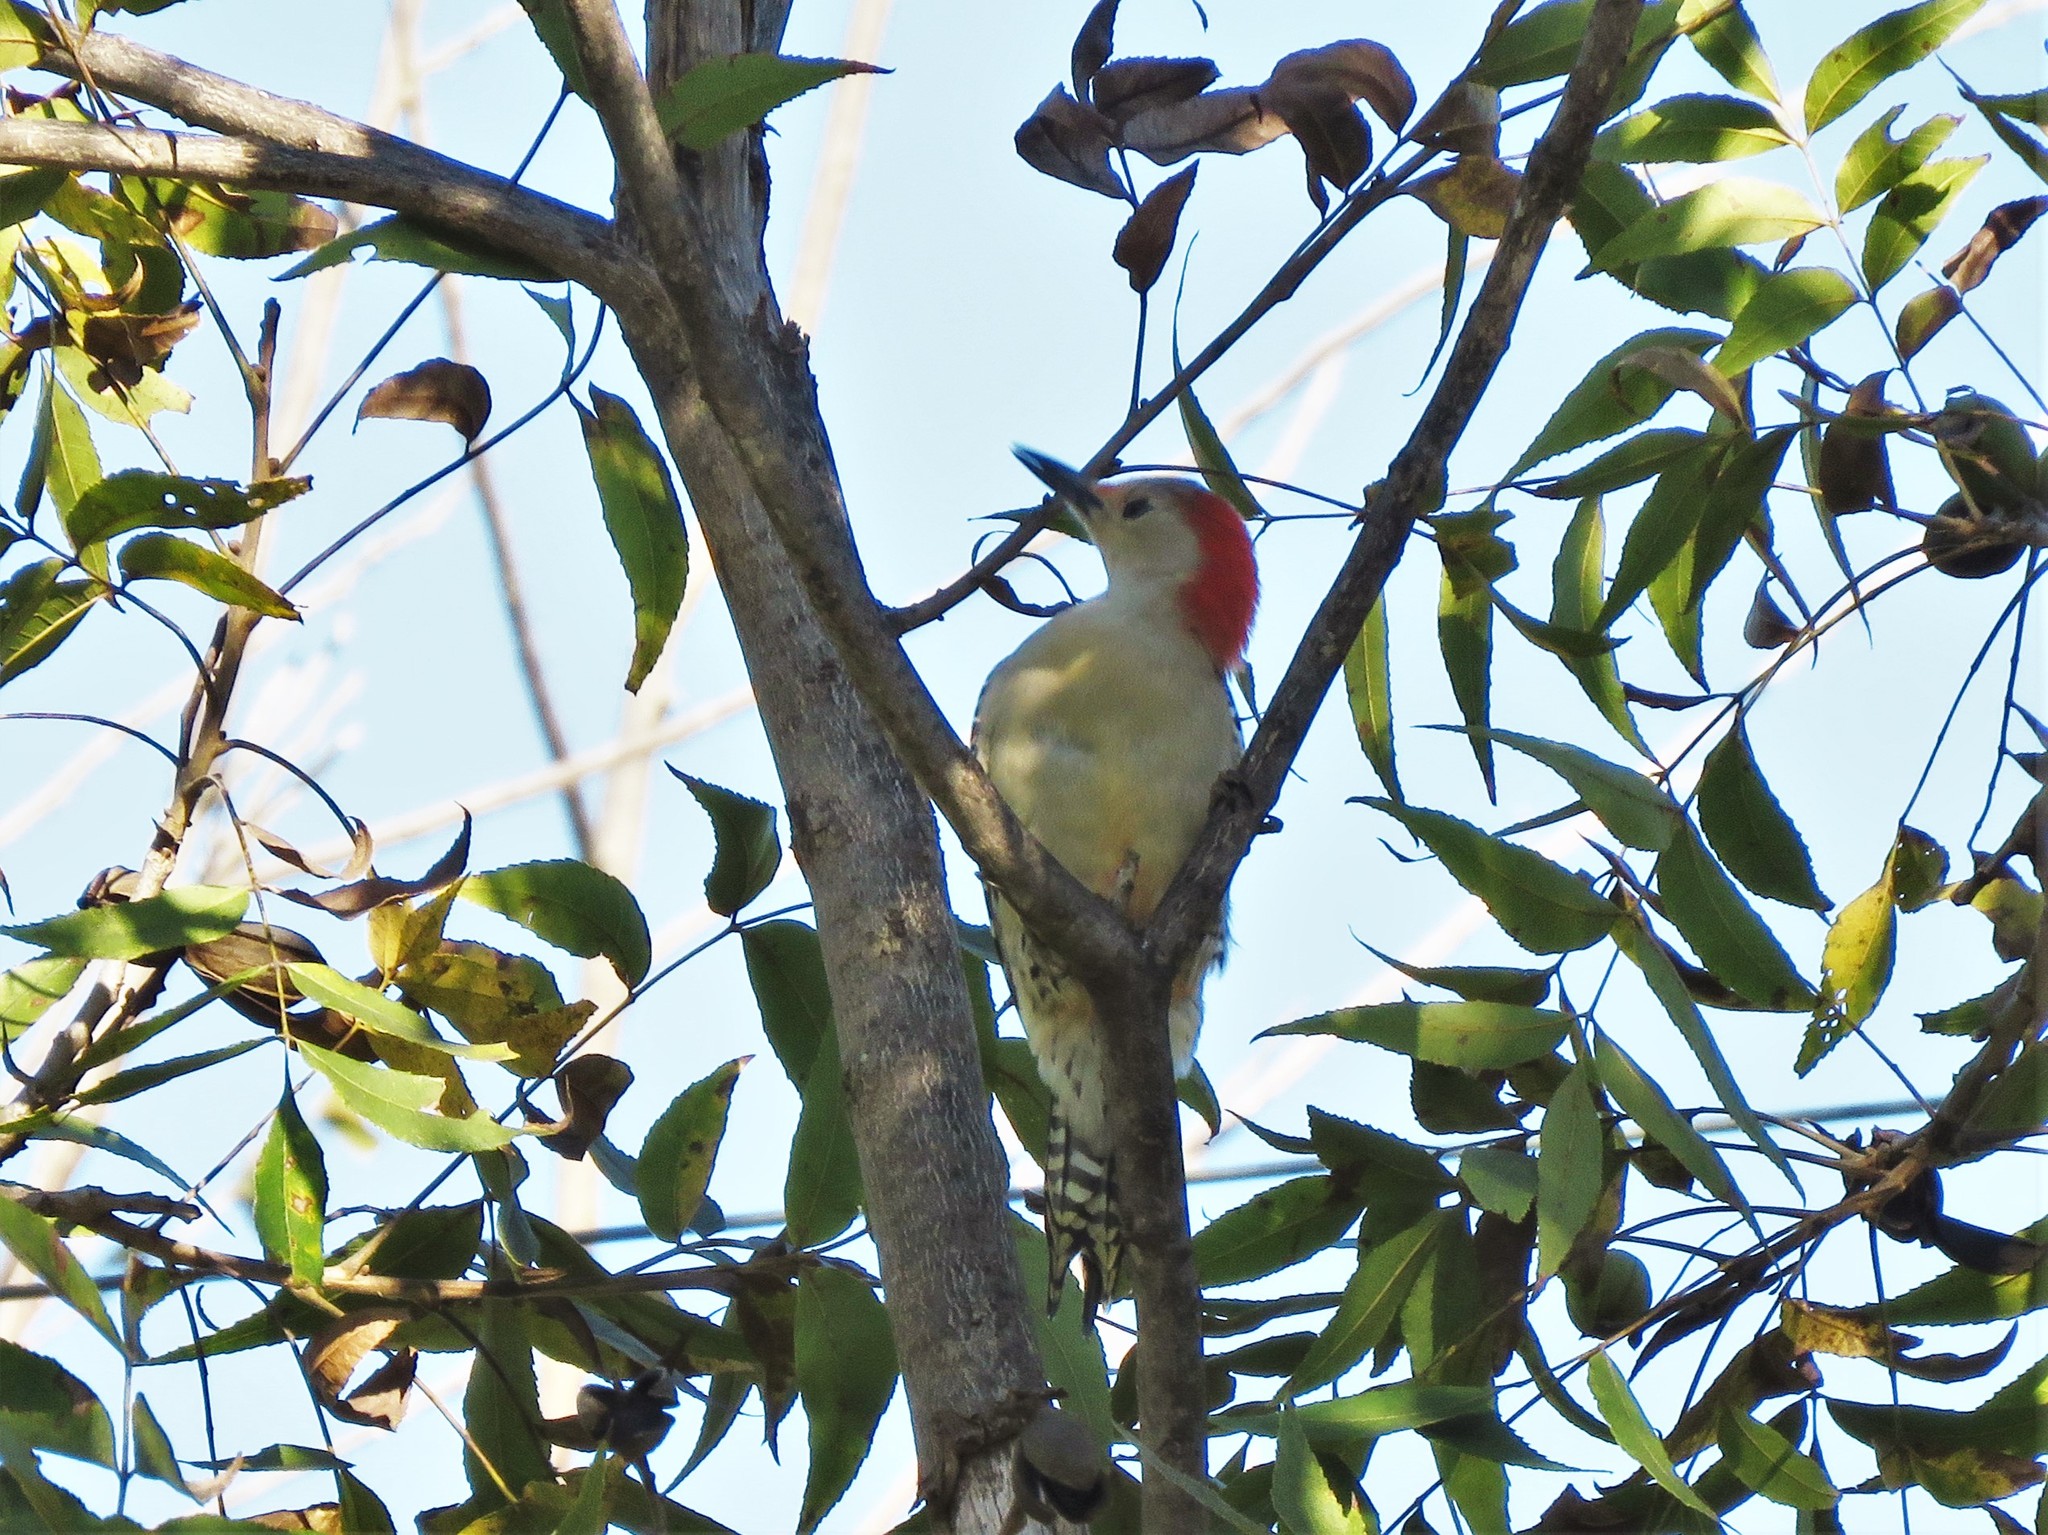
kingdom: Animalia
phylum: Chordata
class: Aves
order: Piciformes
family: Picidae
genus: Melanerpes
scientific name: Melanerpes carolinus
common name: Red-bellied woodpecker
